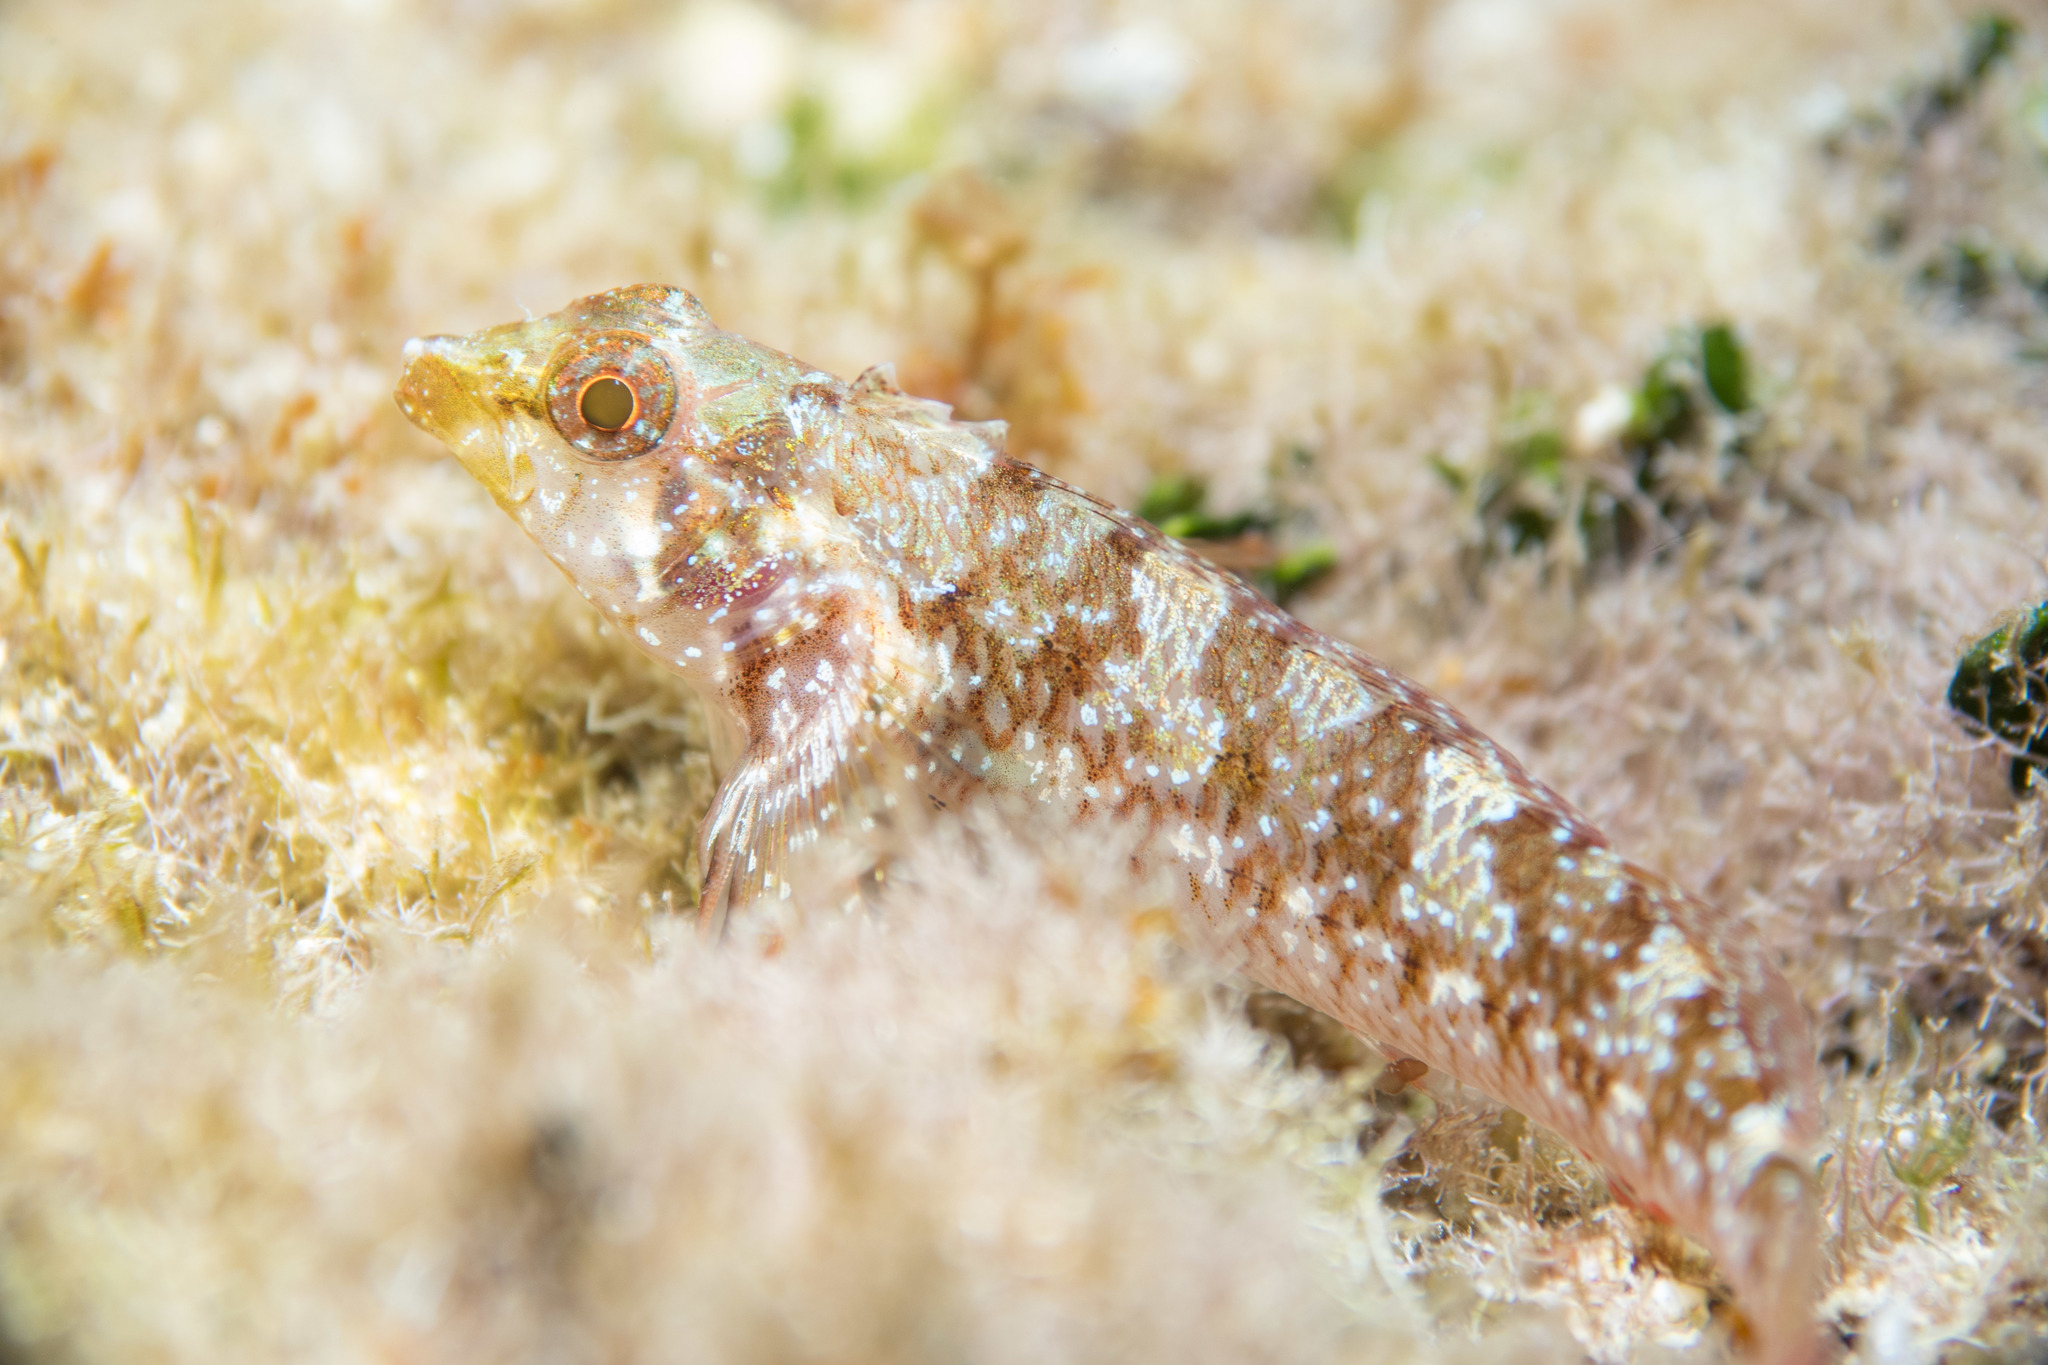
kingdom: Animalia
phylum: Chordata
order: Perciformes
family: Tripterygiidae
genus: Tripterygion
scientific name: Tripterygion tripteronotum
